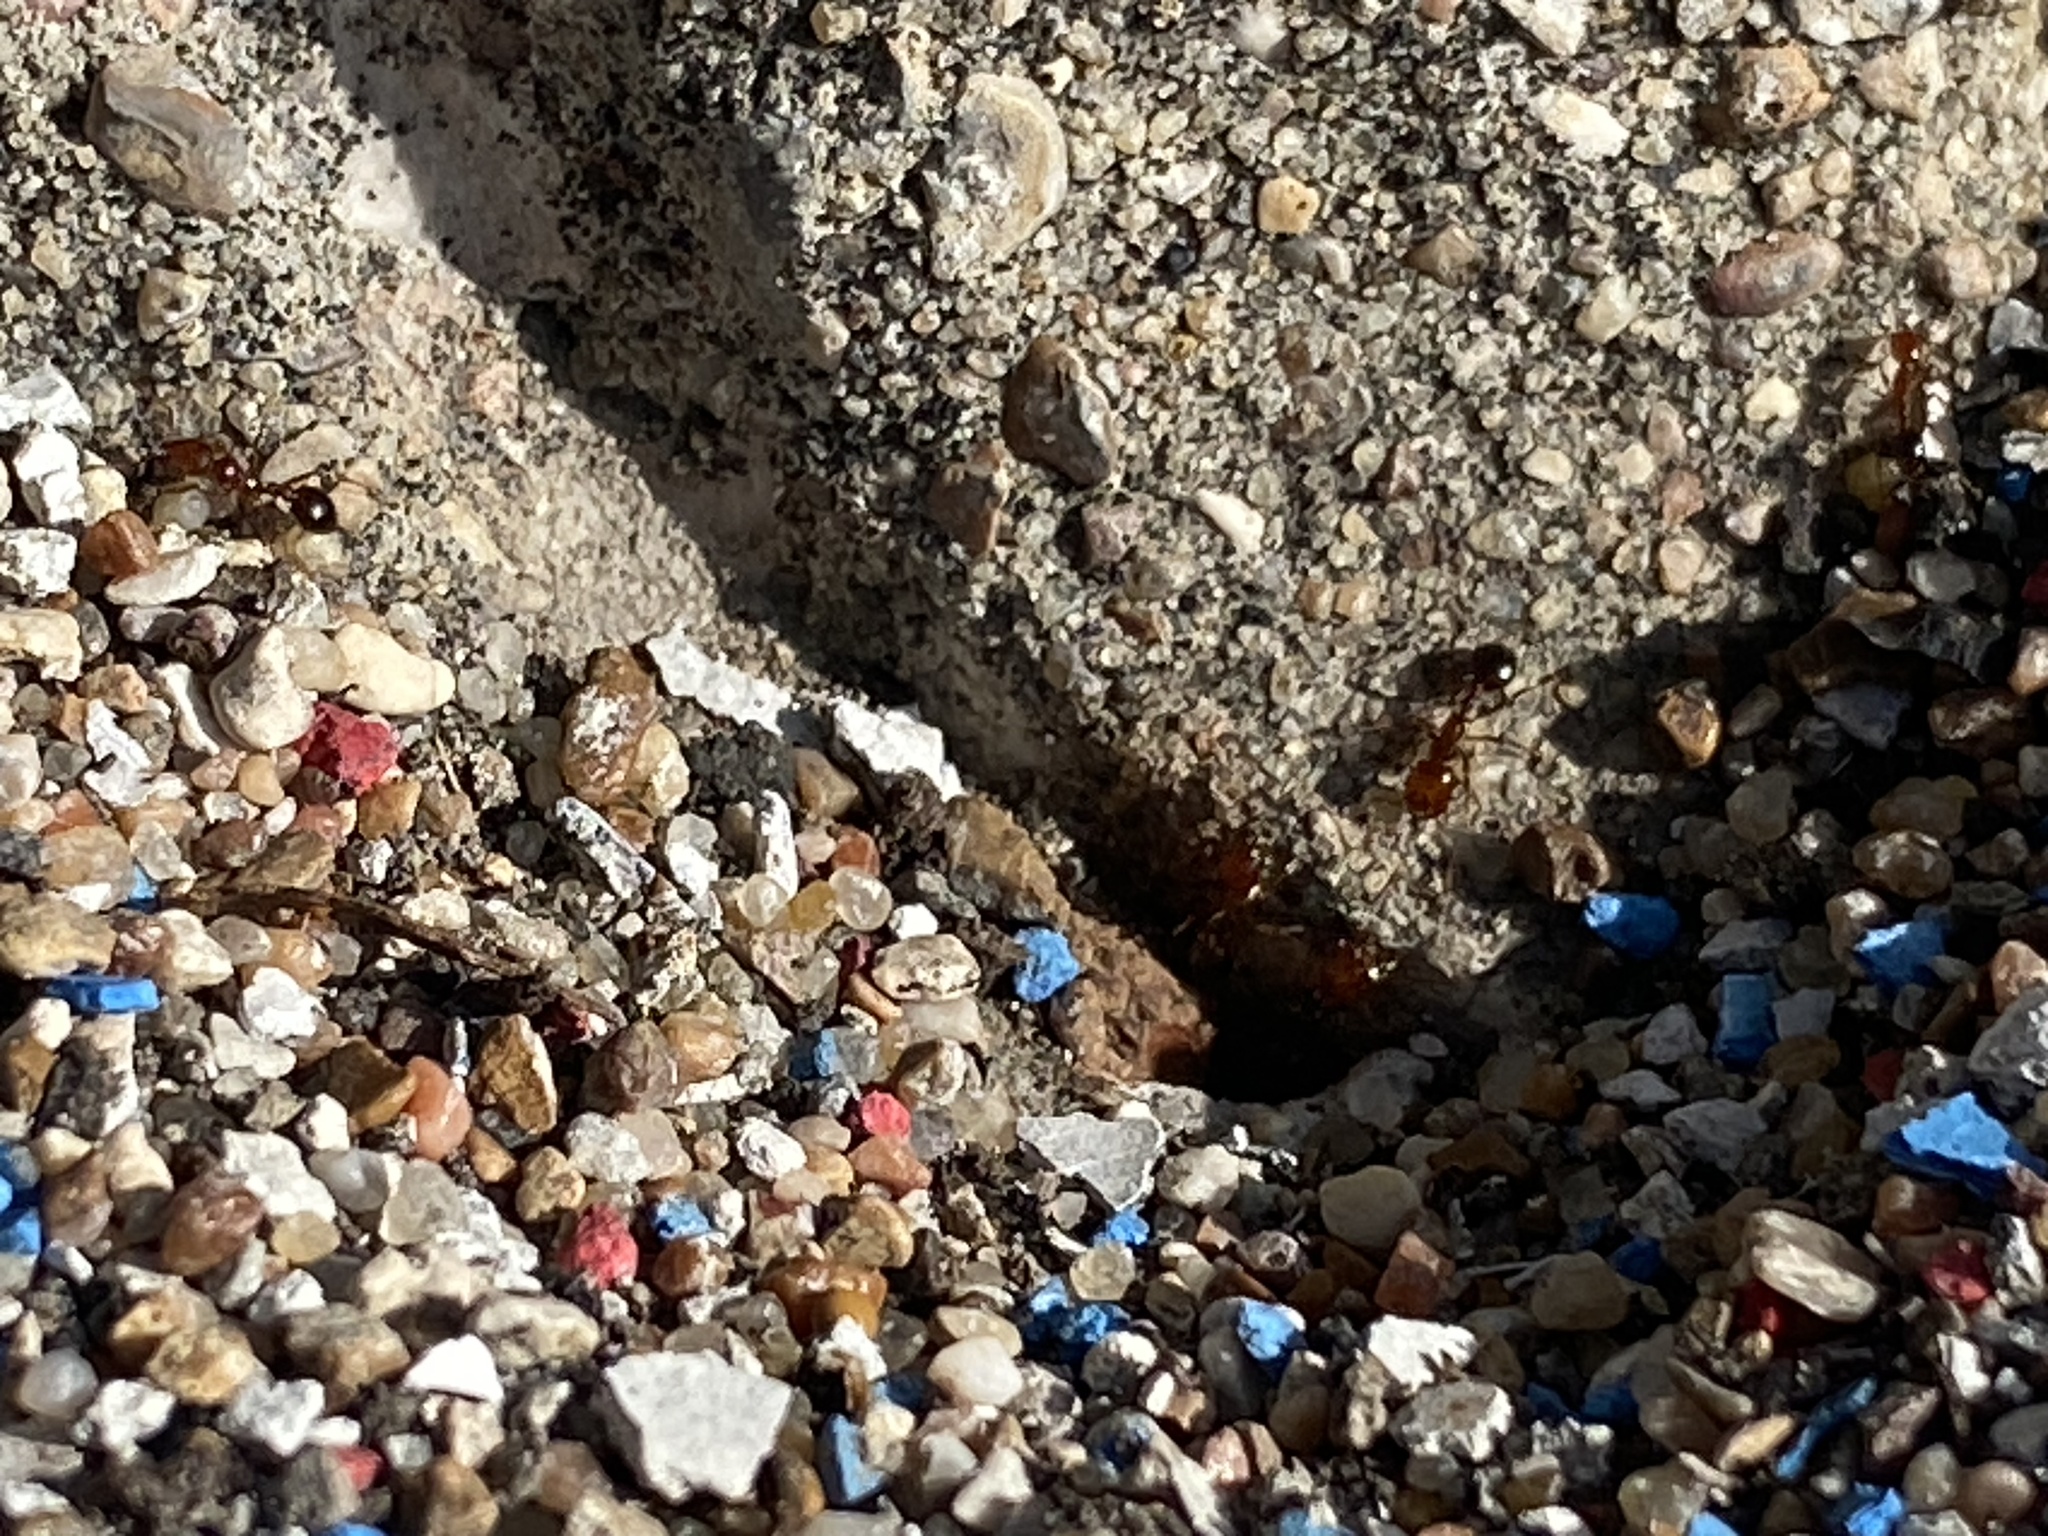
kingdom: Animalia
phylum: Arthropoda
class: Insecta
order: Hymenoptera
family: Formicidae
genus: Solenopsis
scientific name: Solenopsis invicta
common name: Red imported fire ant
